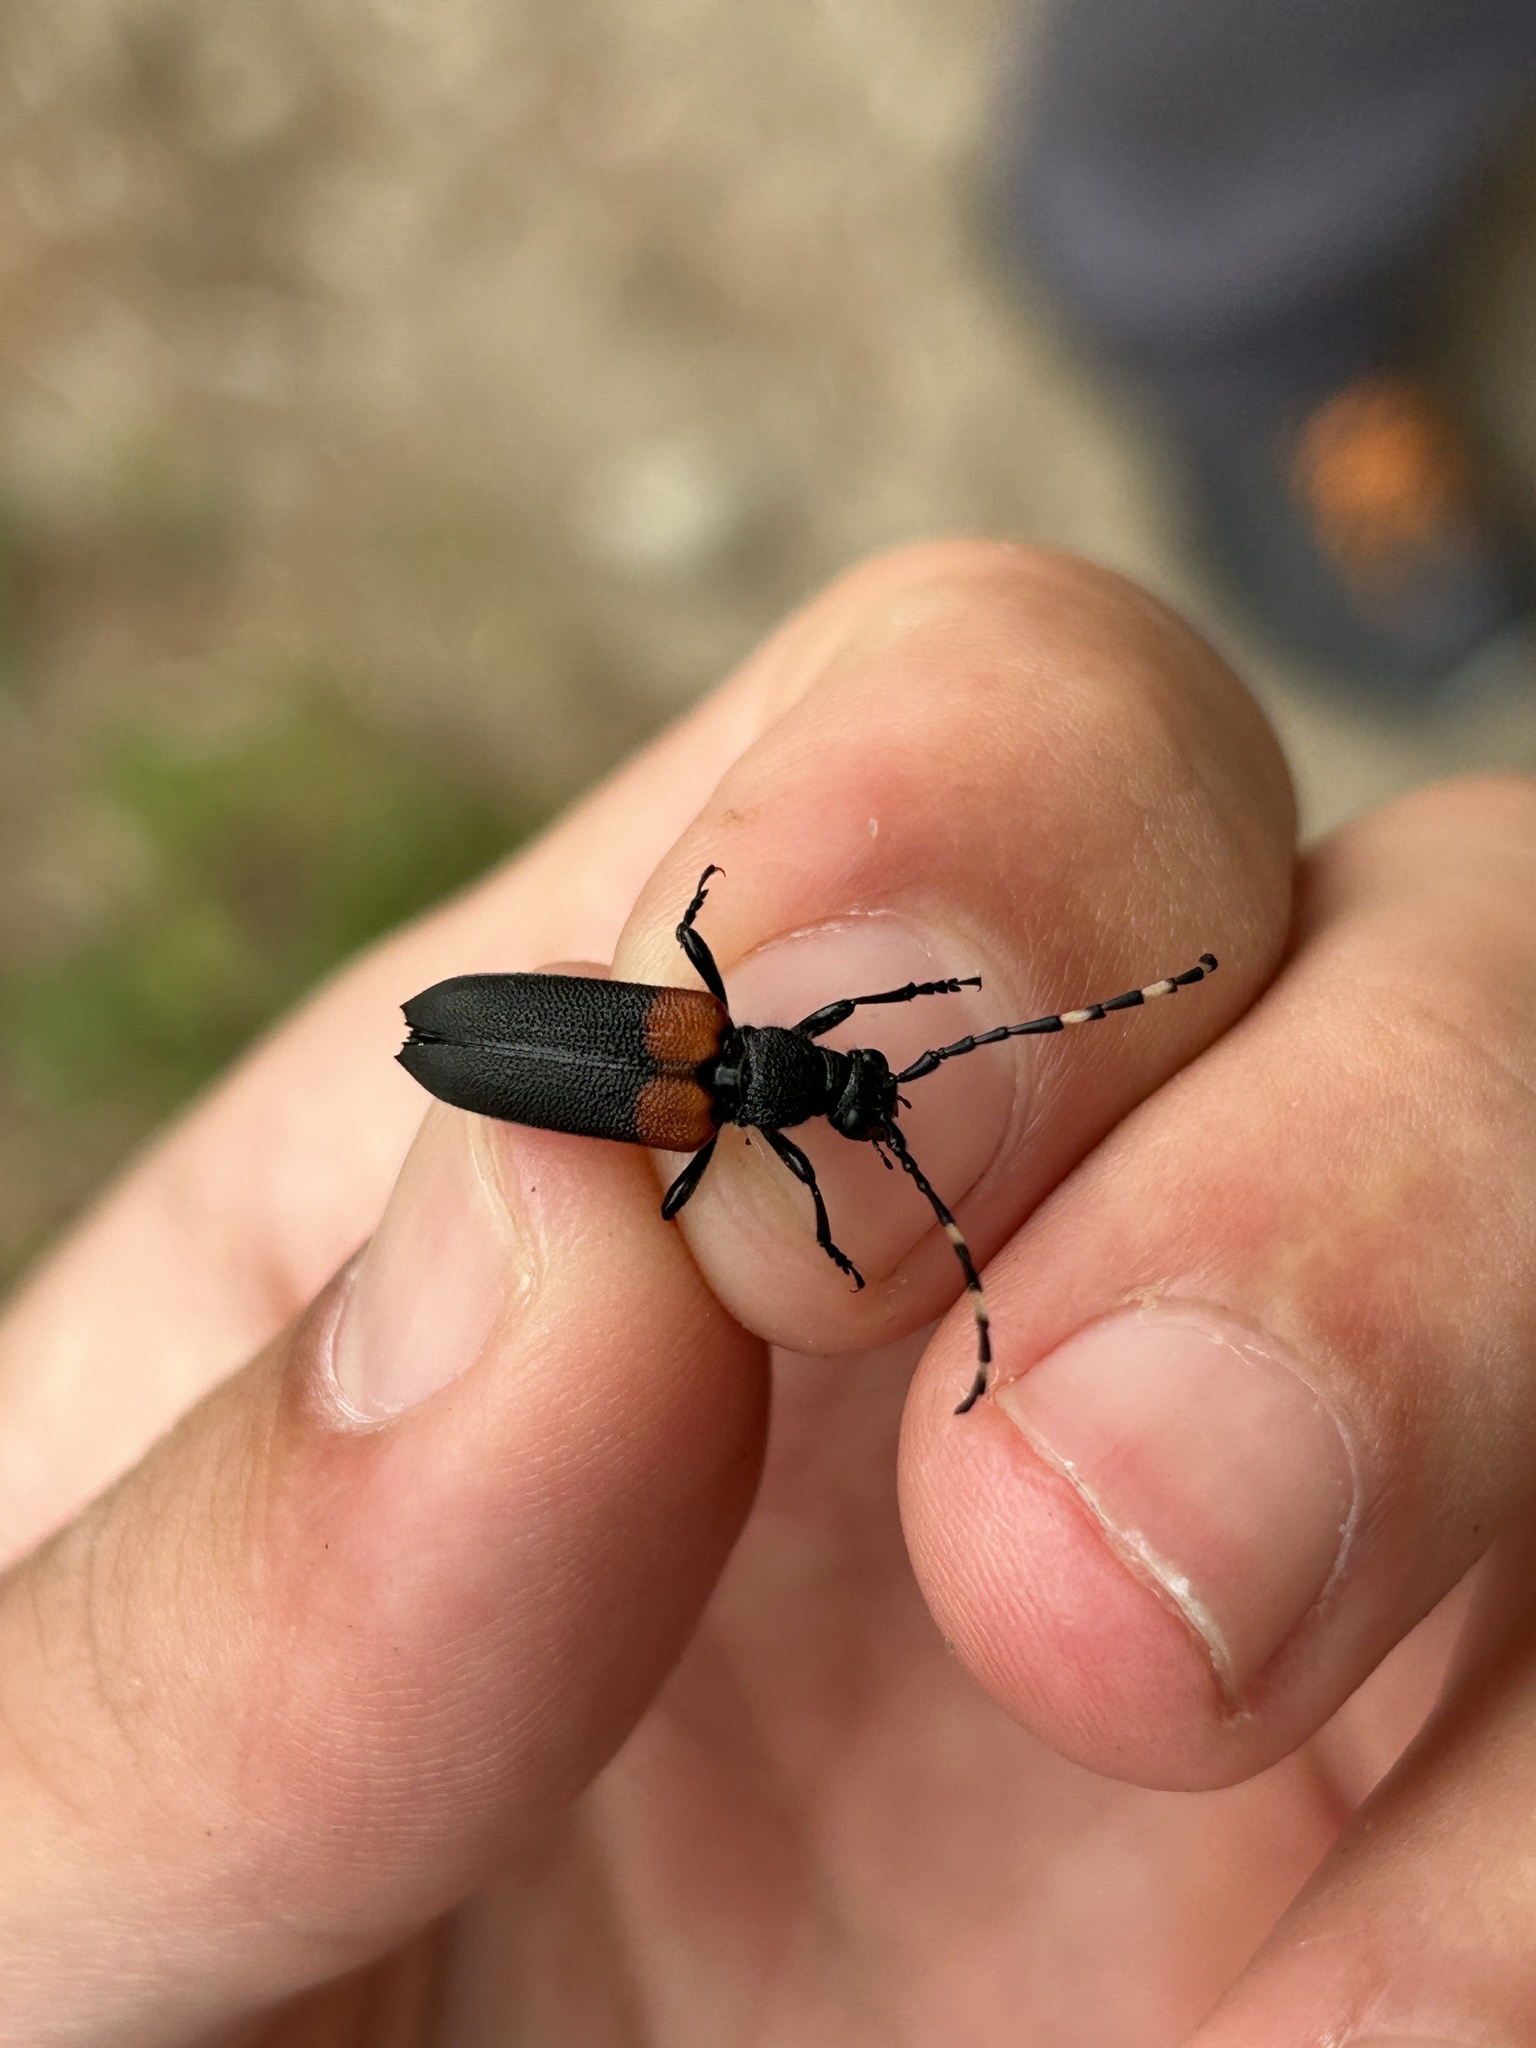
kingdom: Animalia
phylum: Arthropoda
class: Insecta
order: Coleoptera
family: Cerambycidae
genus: Stictoleptura
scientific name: Stictoleptura canadensis
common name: Red-shouldered pine borer
